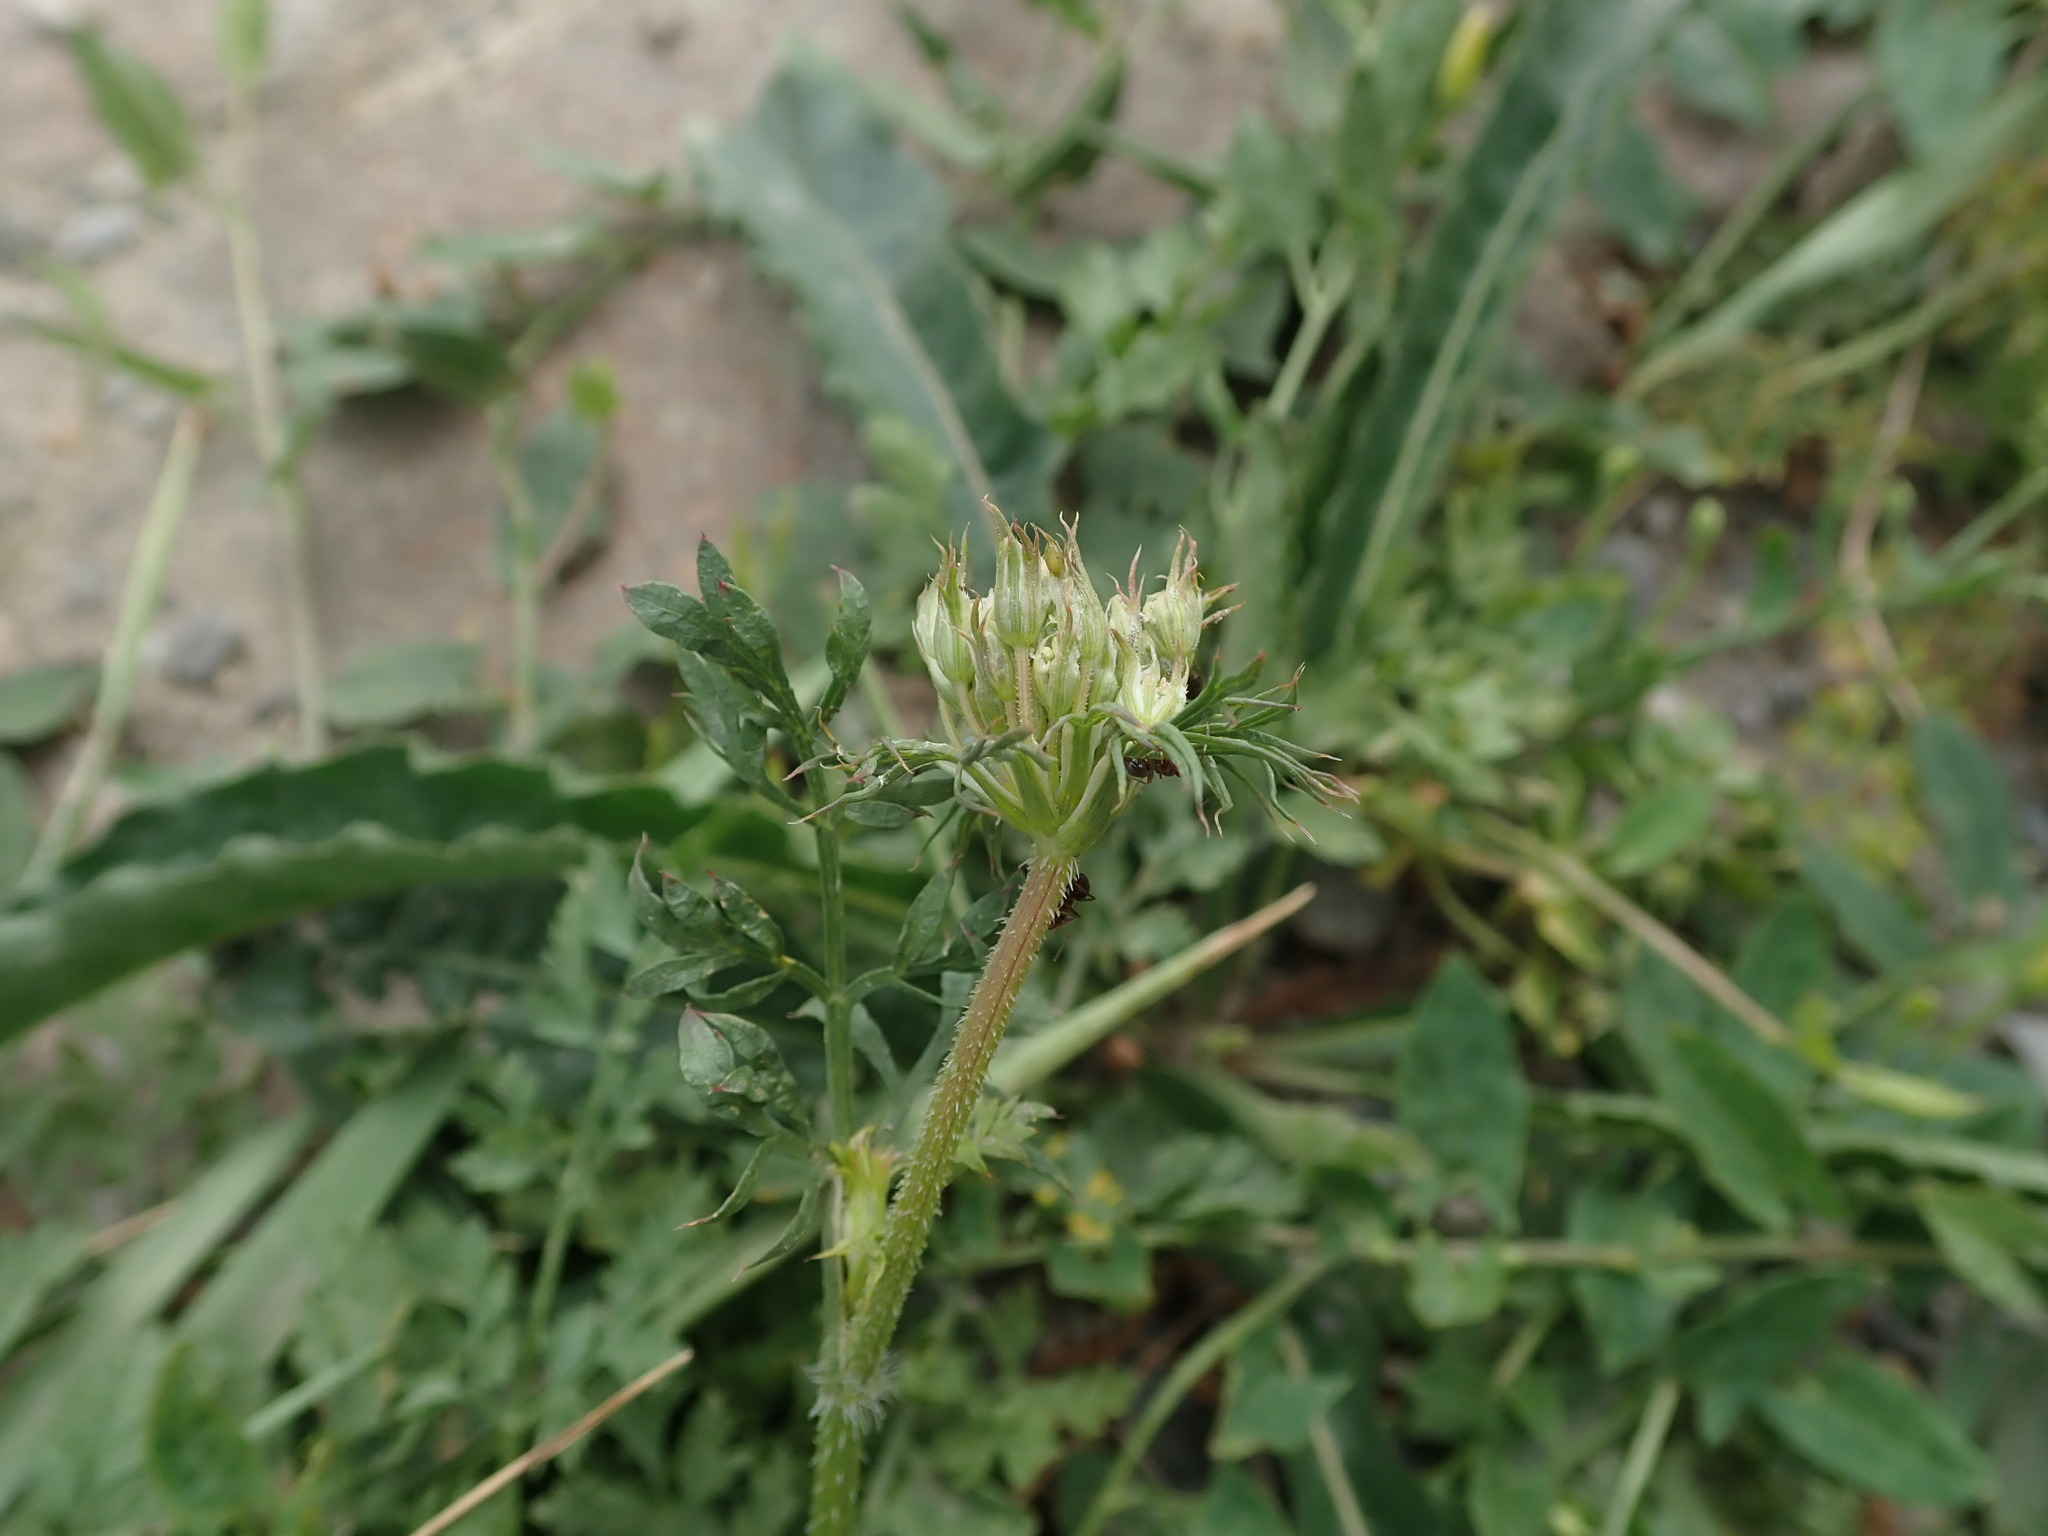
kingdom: Plantae
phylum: Tracheophyta
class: Magnoliopsida
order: Apiales
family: Apiaceae
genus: Daucus
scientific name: Daucus carota
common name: Wild carrot
